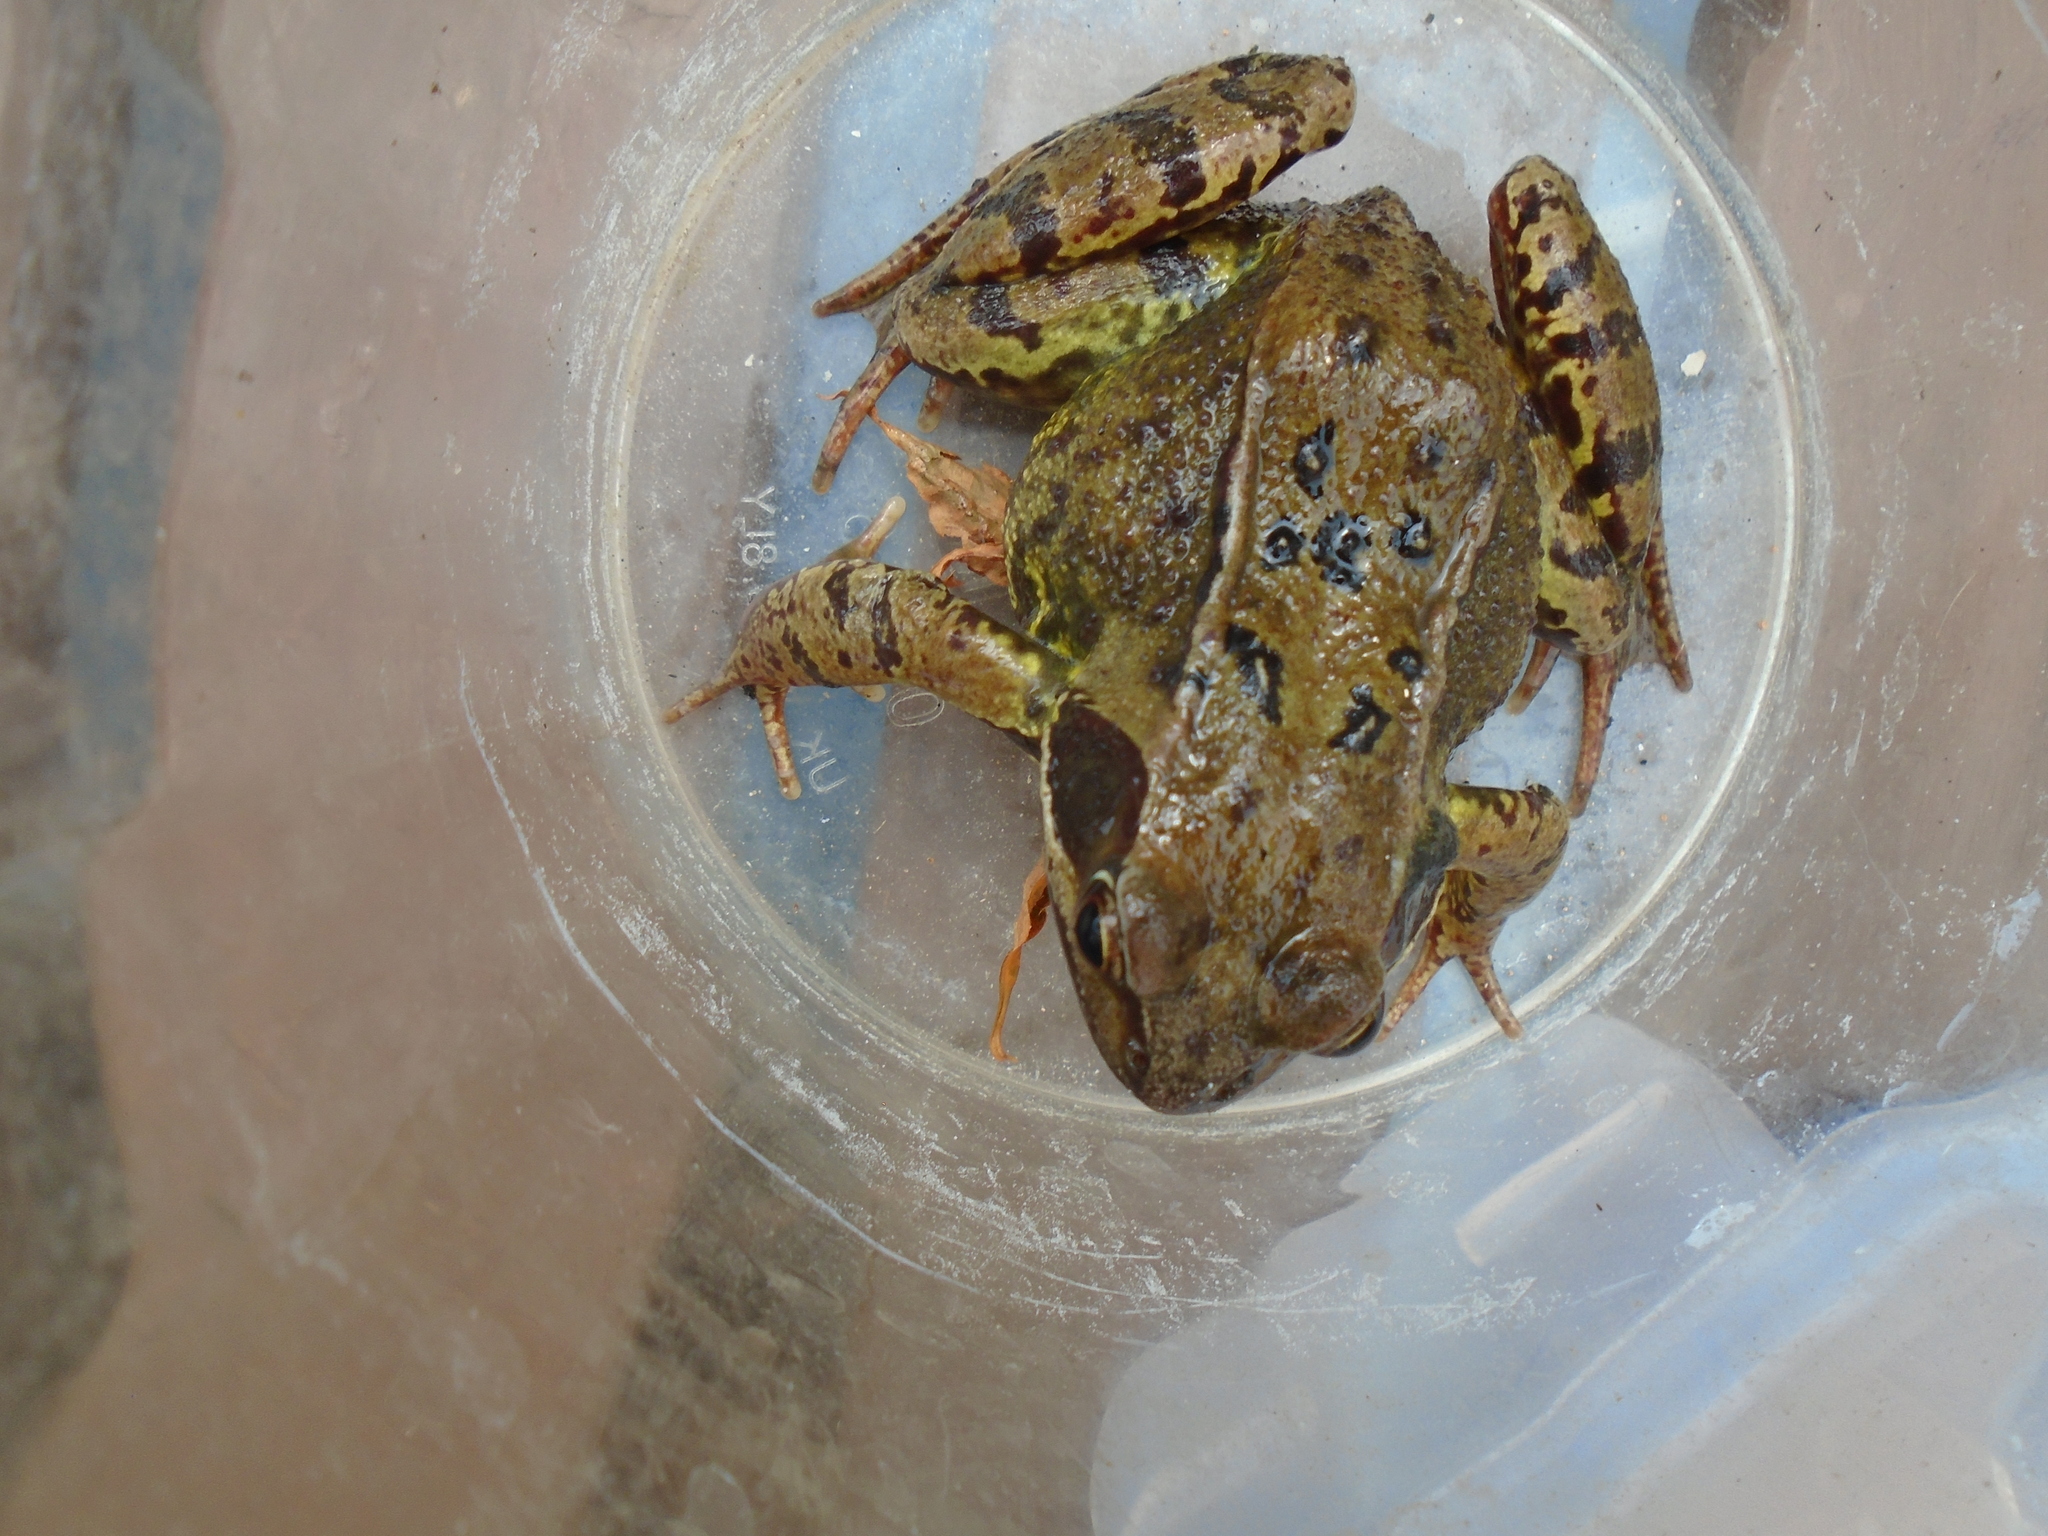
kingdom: Animalia
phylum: Chordata
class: Amphibia
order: Anura
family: Ranidae
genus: Rana
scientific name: Rana temporaria
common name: Common frog
